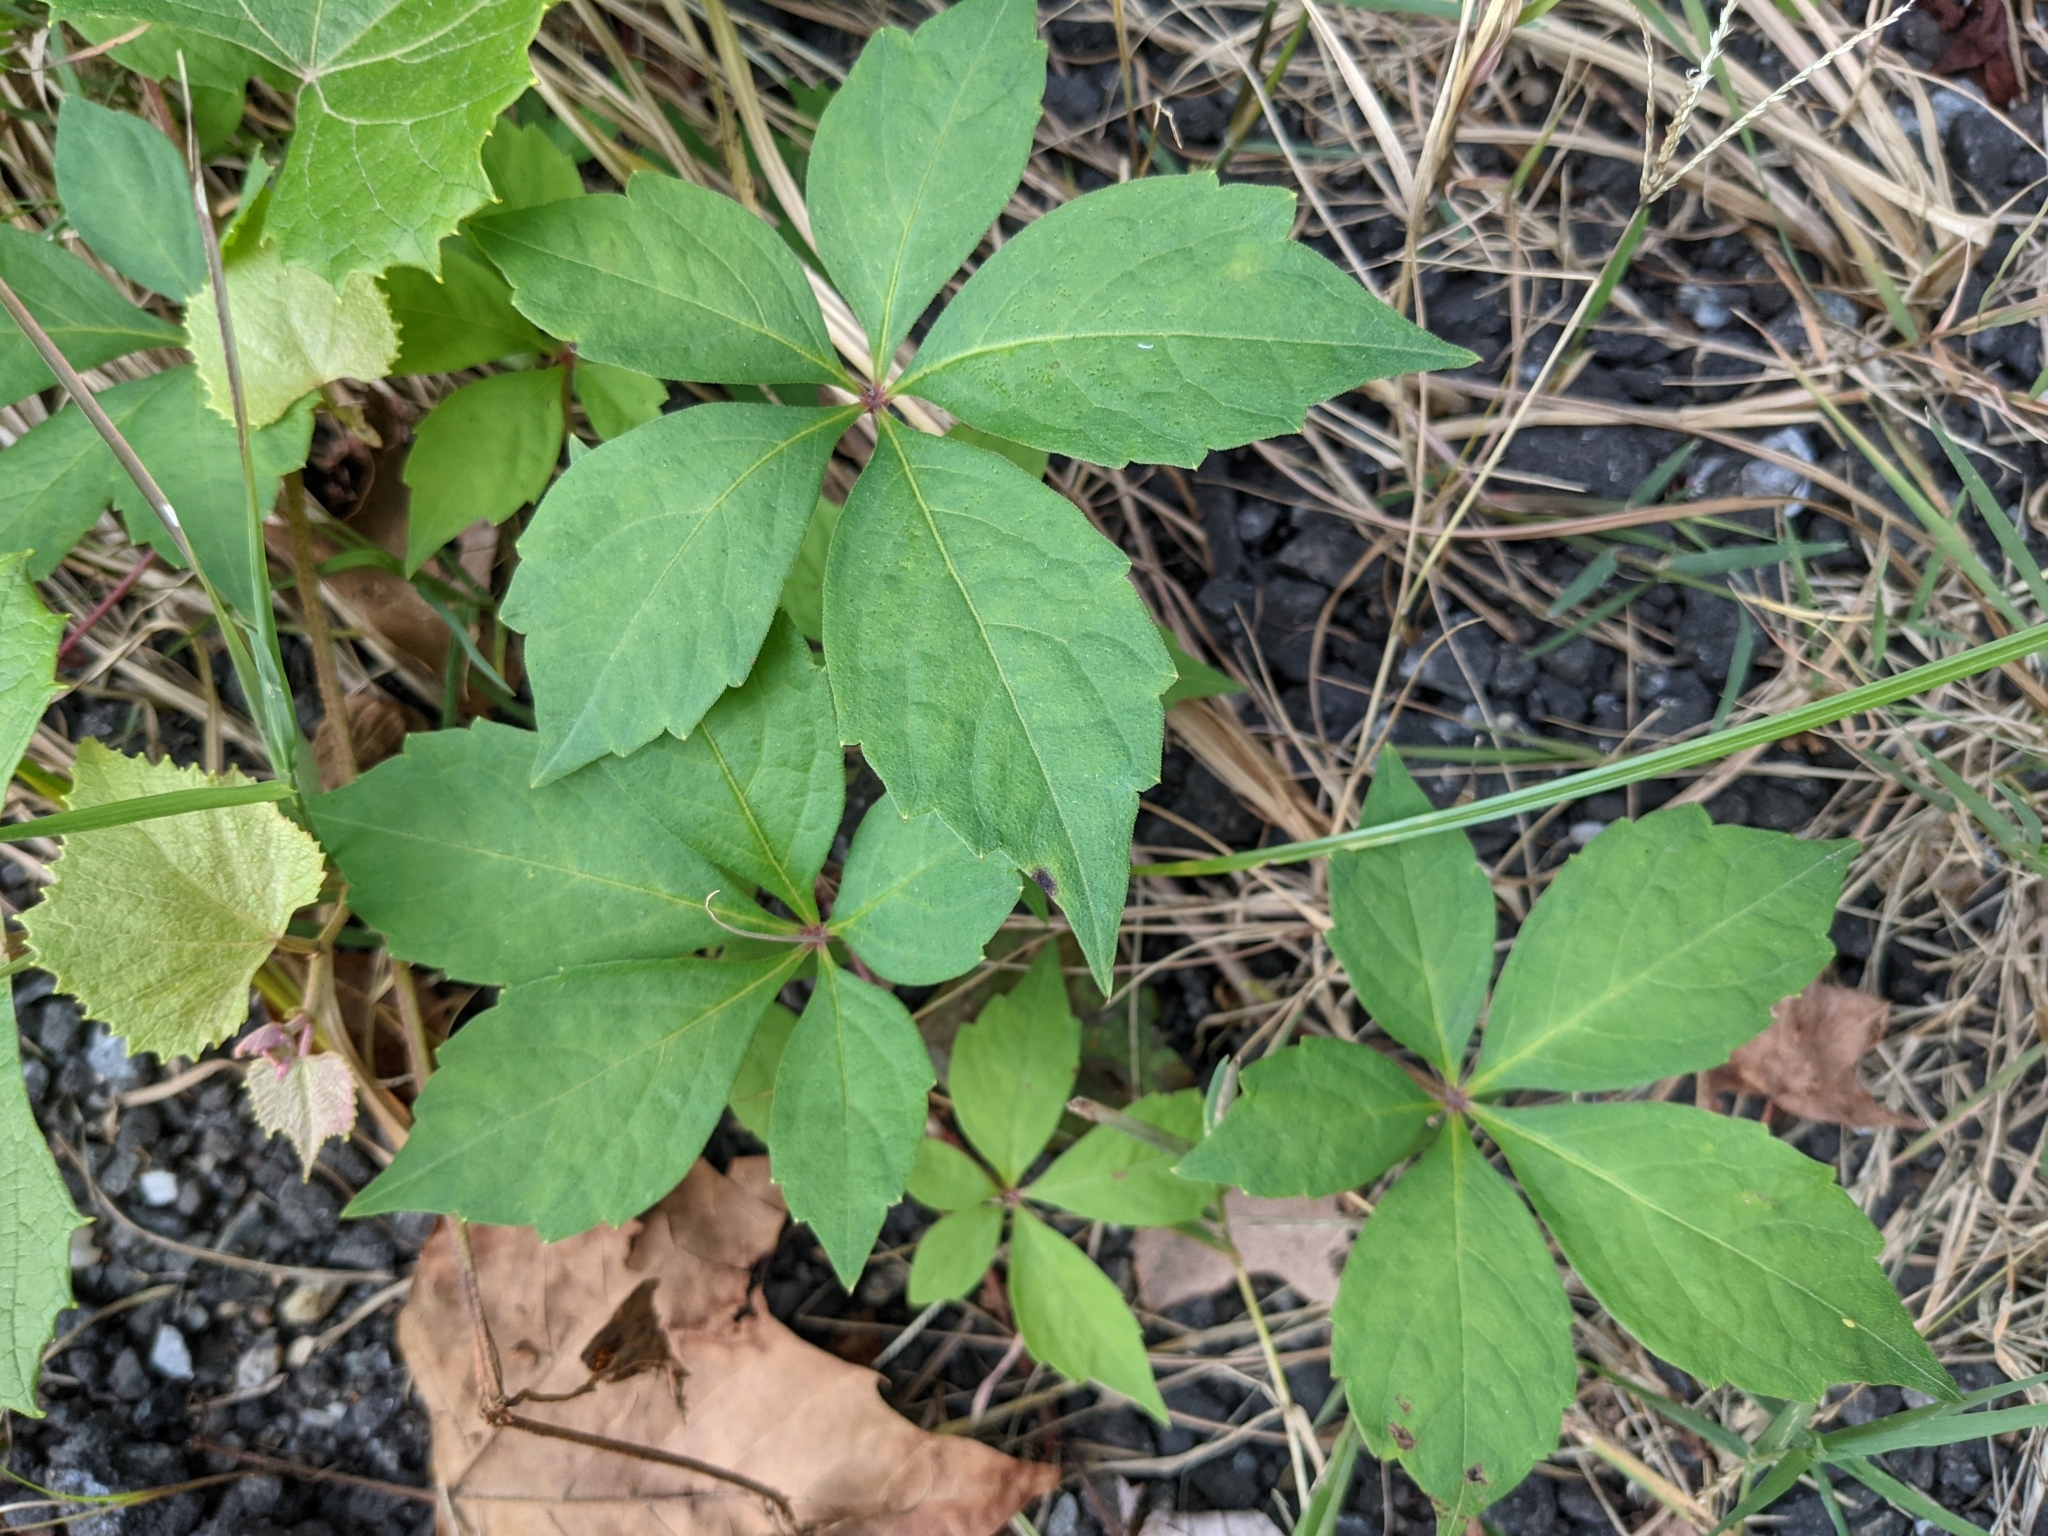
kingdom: Plantae
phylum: Tracheophyta
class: Magnoliopsida
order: Vitales
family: Vitaceae
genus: Parthenocissus
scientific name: Parthenocissus quinquefolia
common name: Virginia-creeper
